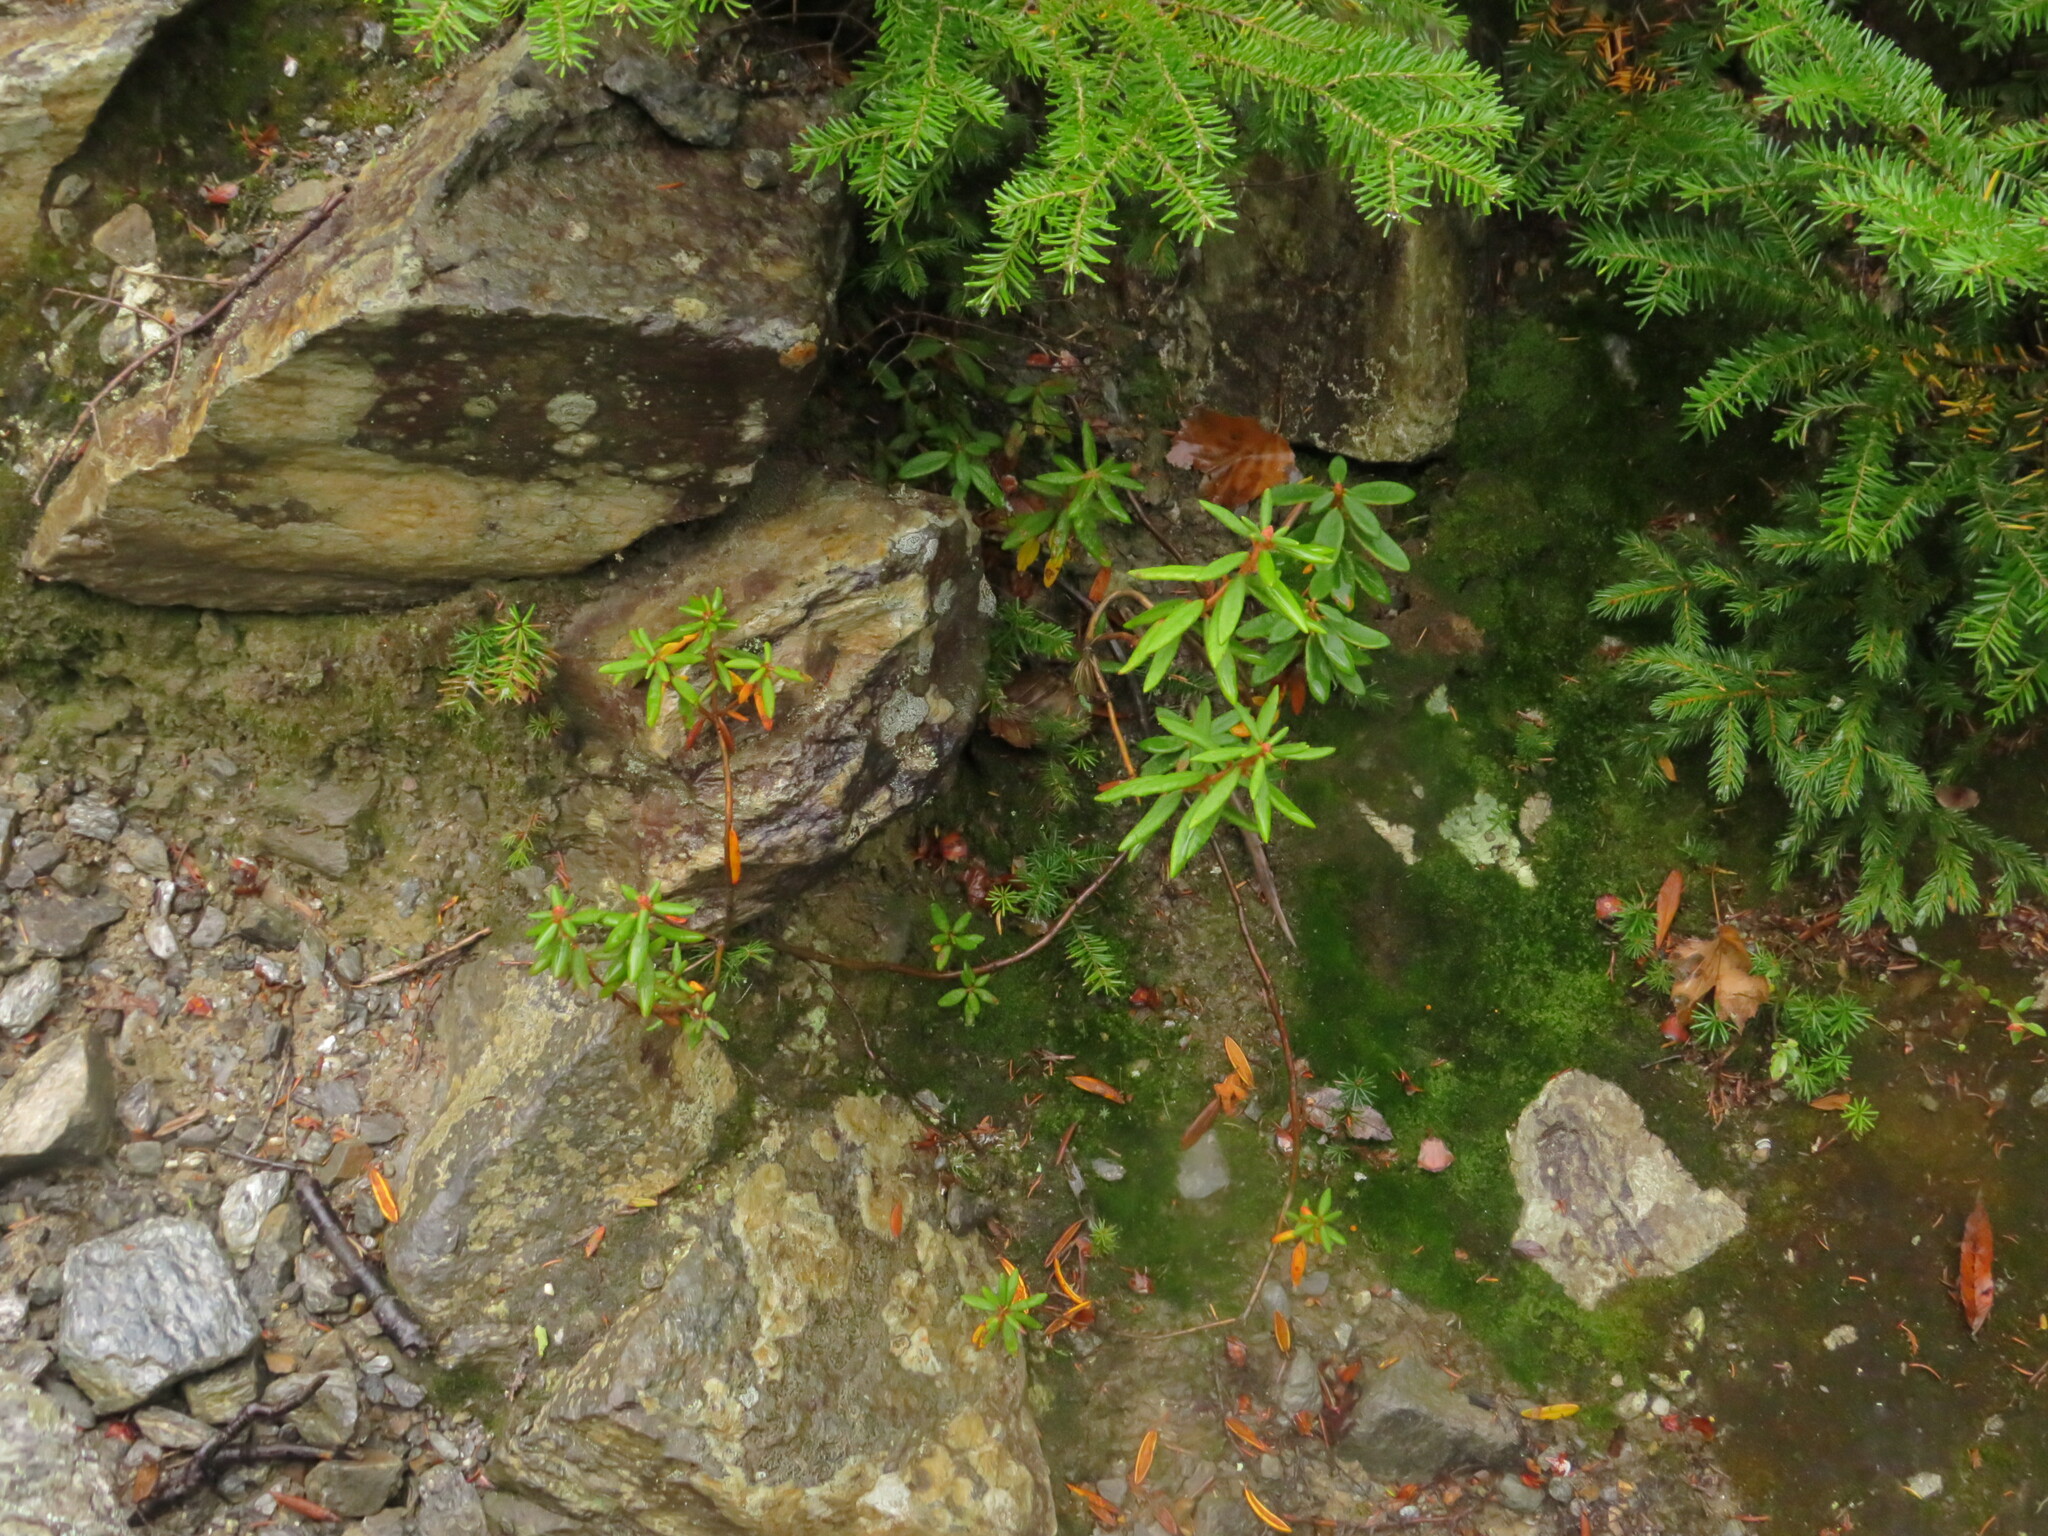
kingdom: Plantae
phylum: Tracheophyta
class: Magnoliopsida
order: Ericales
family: Ericaceae
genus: Rhododendron
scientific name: Rhododendron groenlandicum
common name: Bog labrador tea
